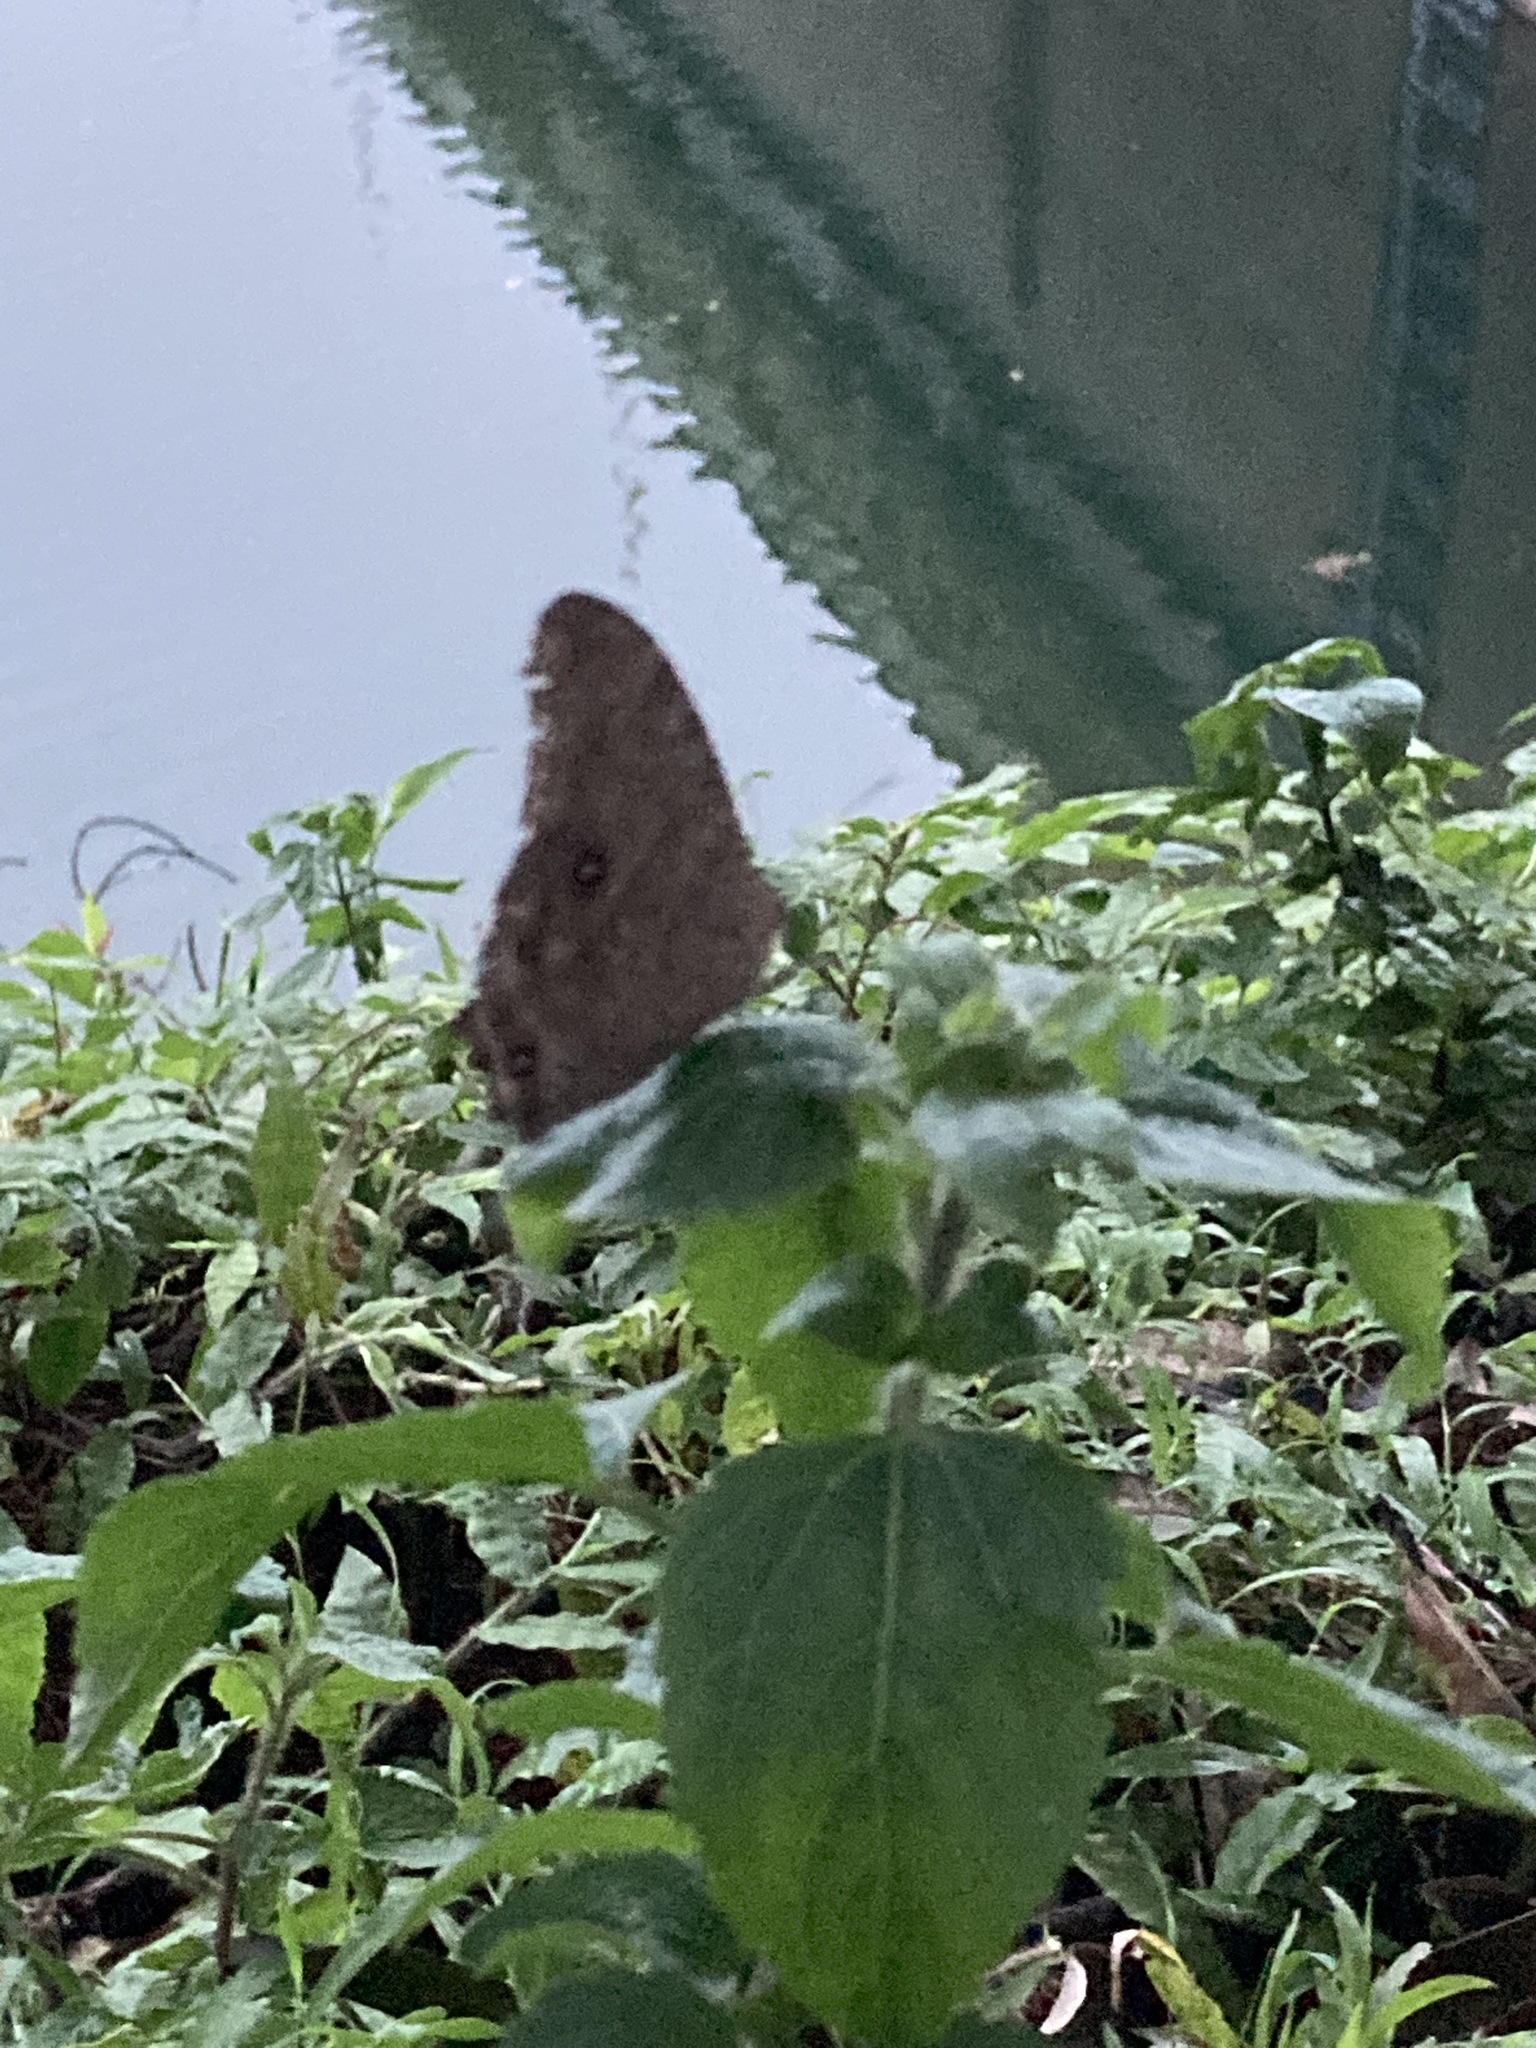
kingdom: Animalia
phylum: Arthropoda
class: Insecta
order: Lepidoptera
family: Nymphalidae
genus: Melanitis
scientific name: Melanitis leda
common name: Twilight brown
